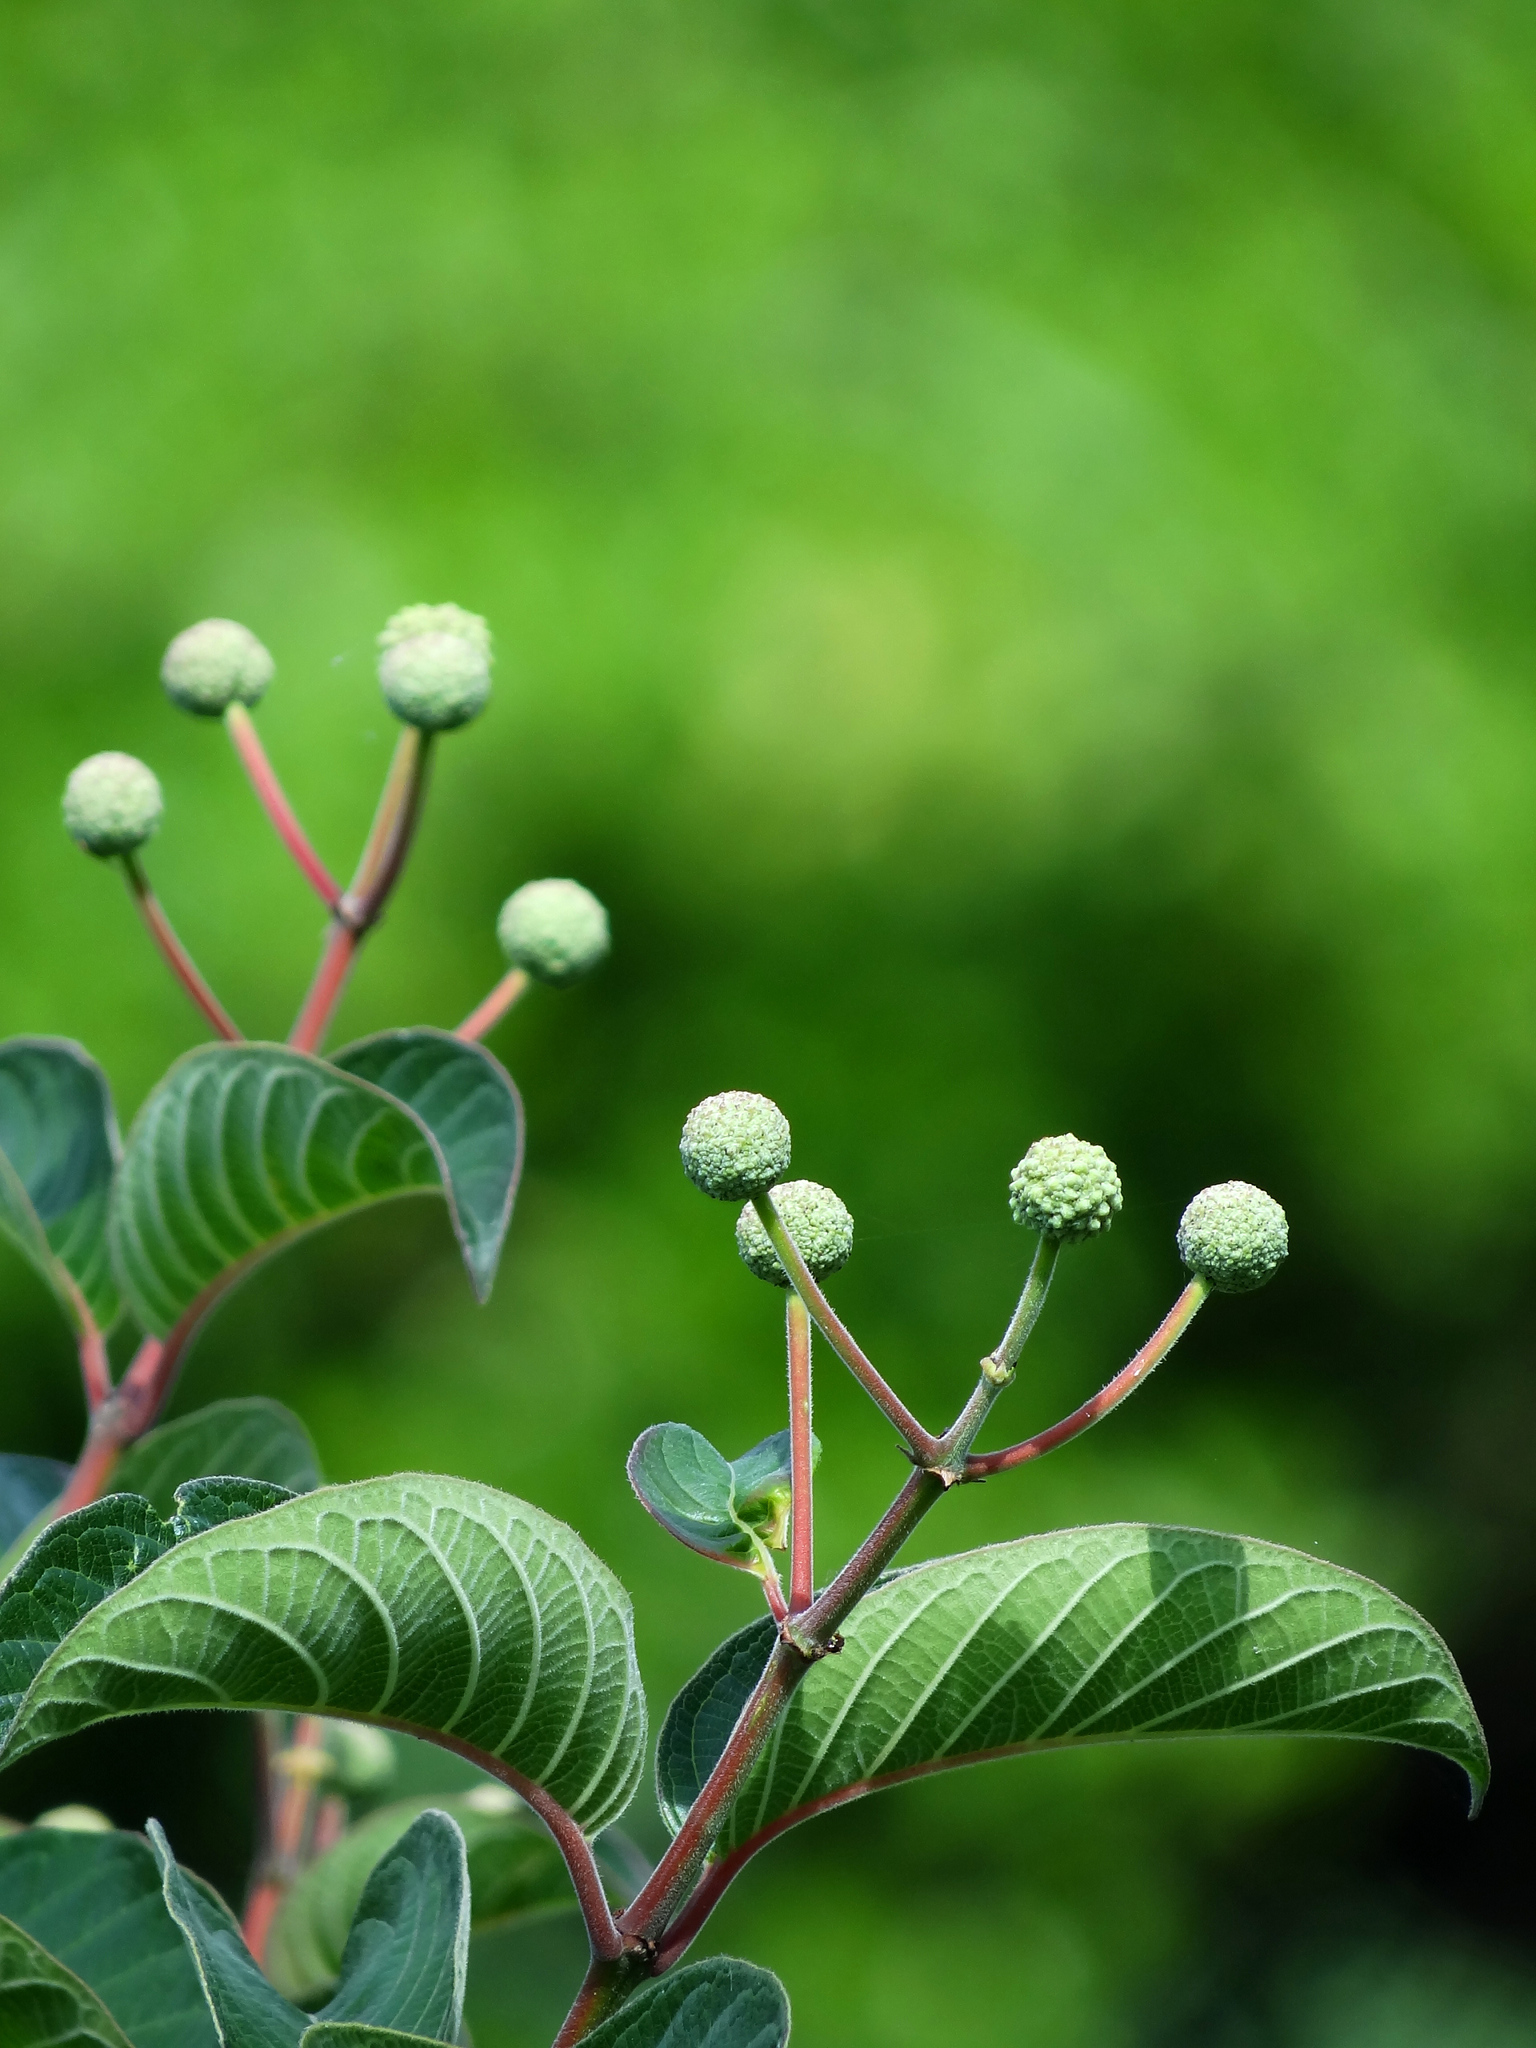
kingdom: Plantae
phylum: Tracheophyta
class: Magnoliopsida
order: Gentianales
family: Rubiaceae
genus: Cephalanthus
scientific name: Cephalanthus tetrandrus
